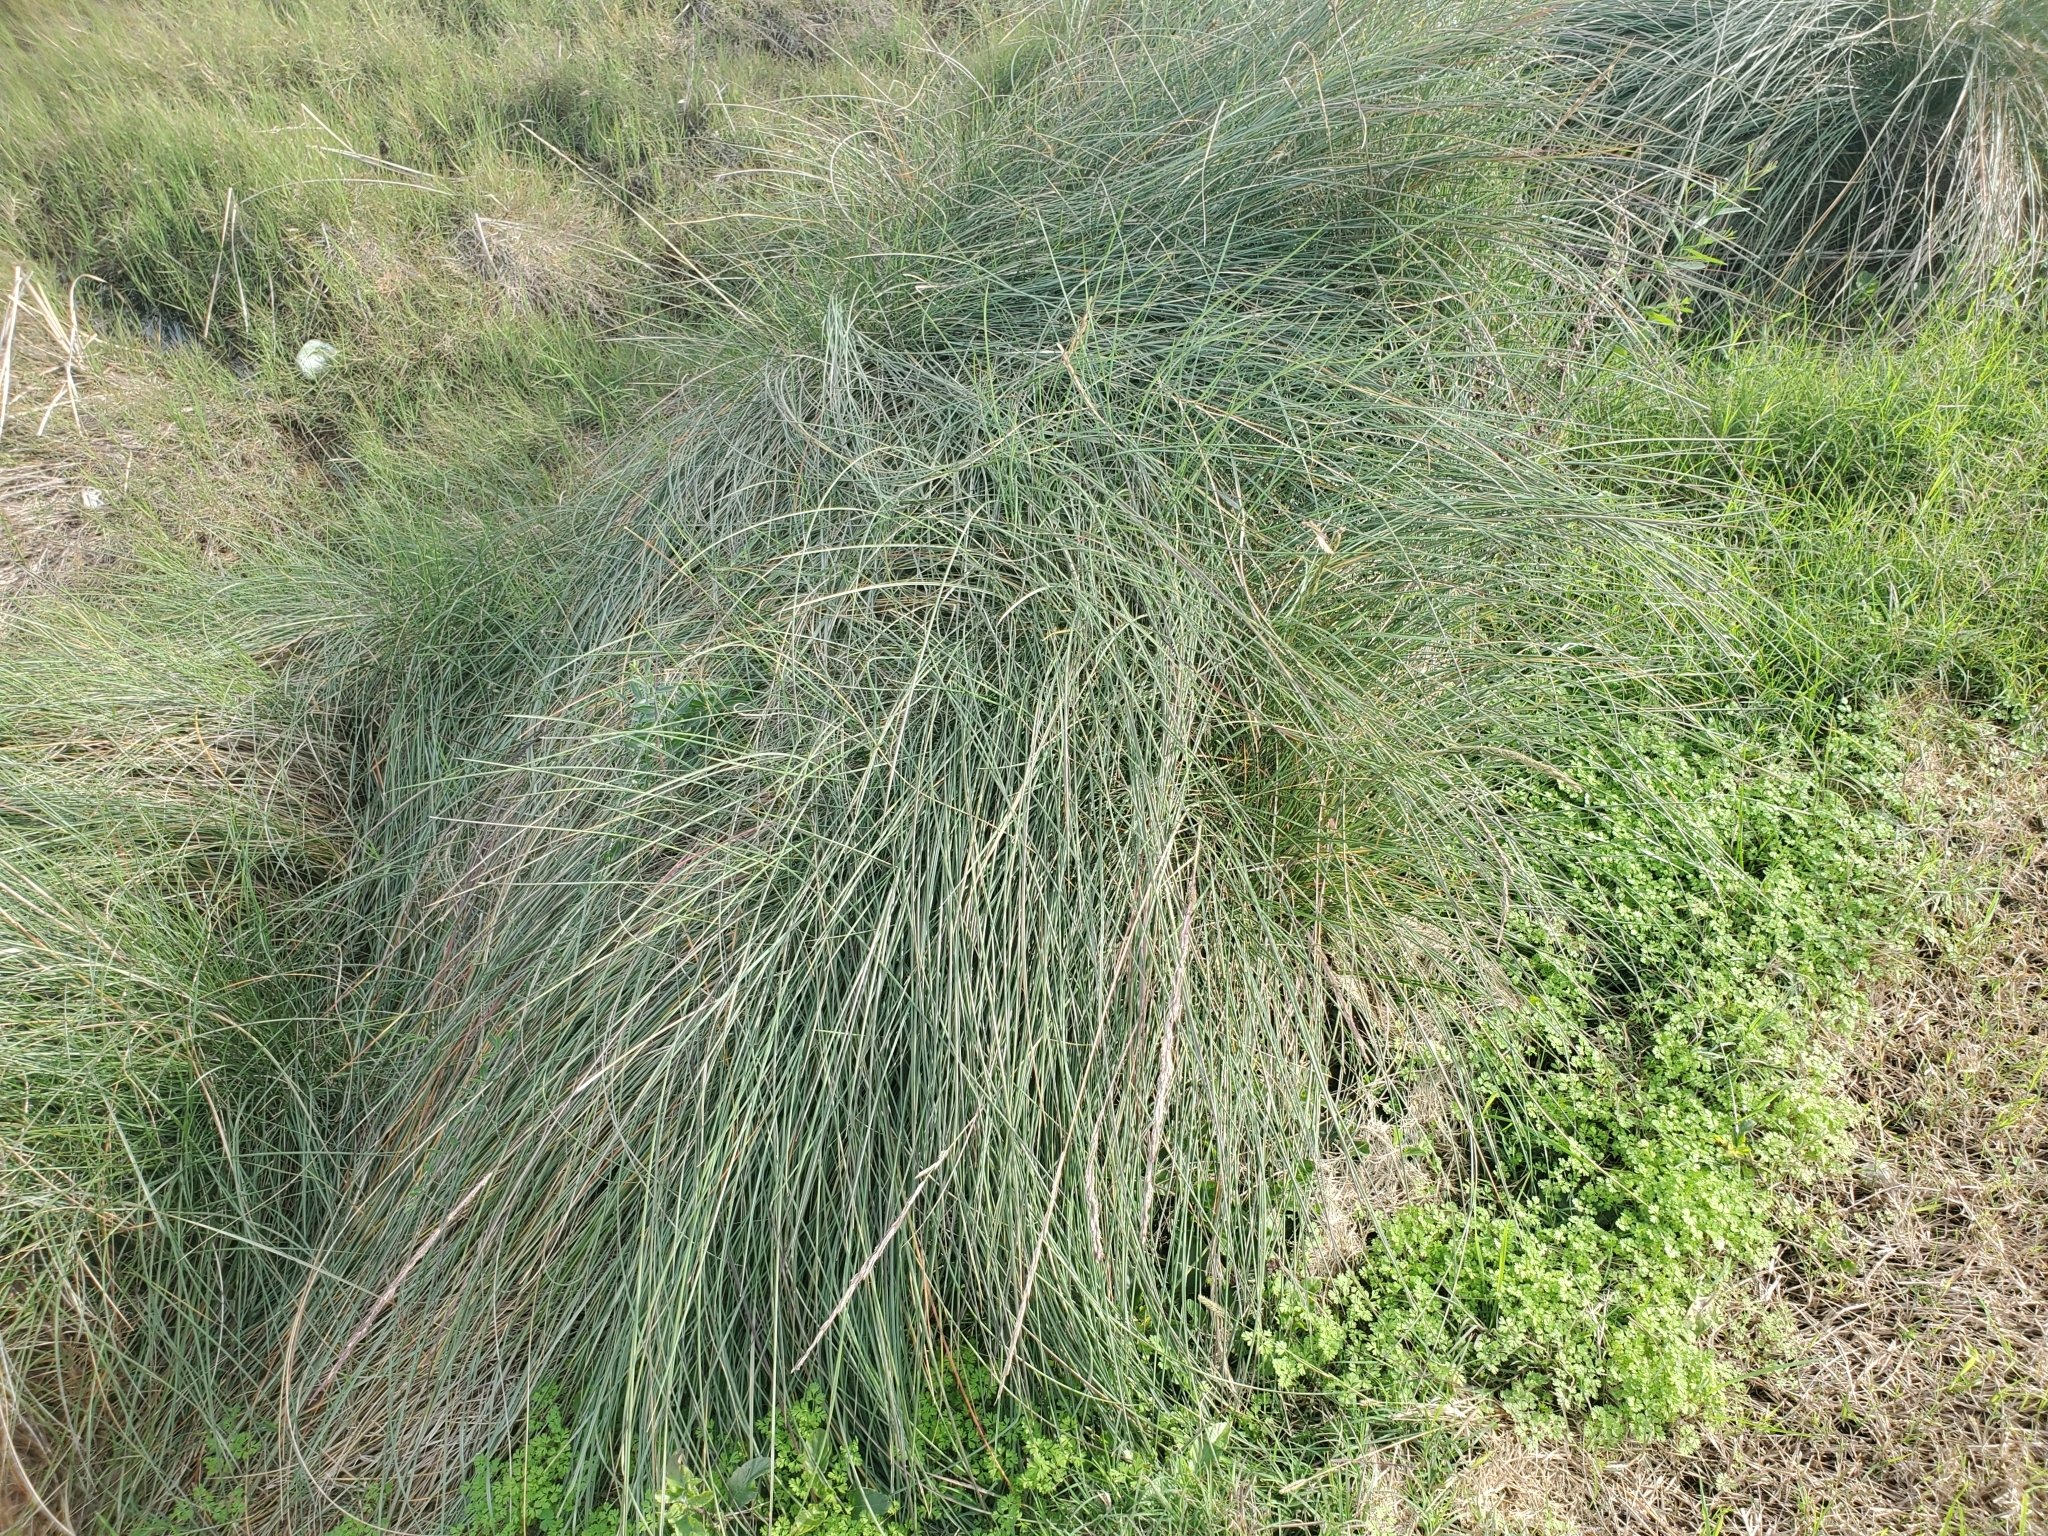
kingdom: Plantae
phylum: Tracheophyta
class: Liliopsida
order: Poales
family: Poaceae
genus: Sporobolus
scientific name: Sporobolus spartinae
